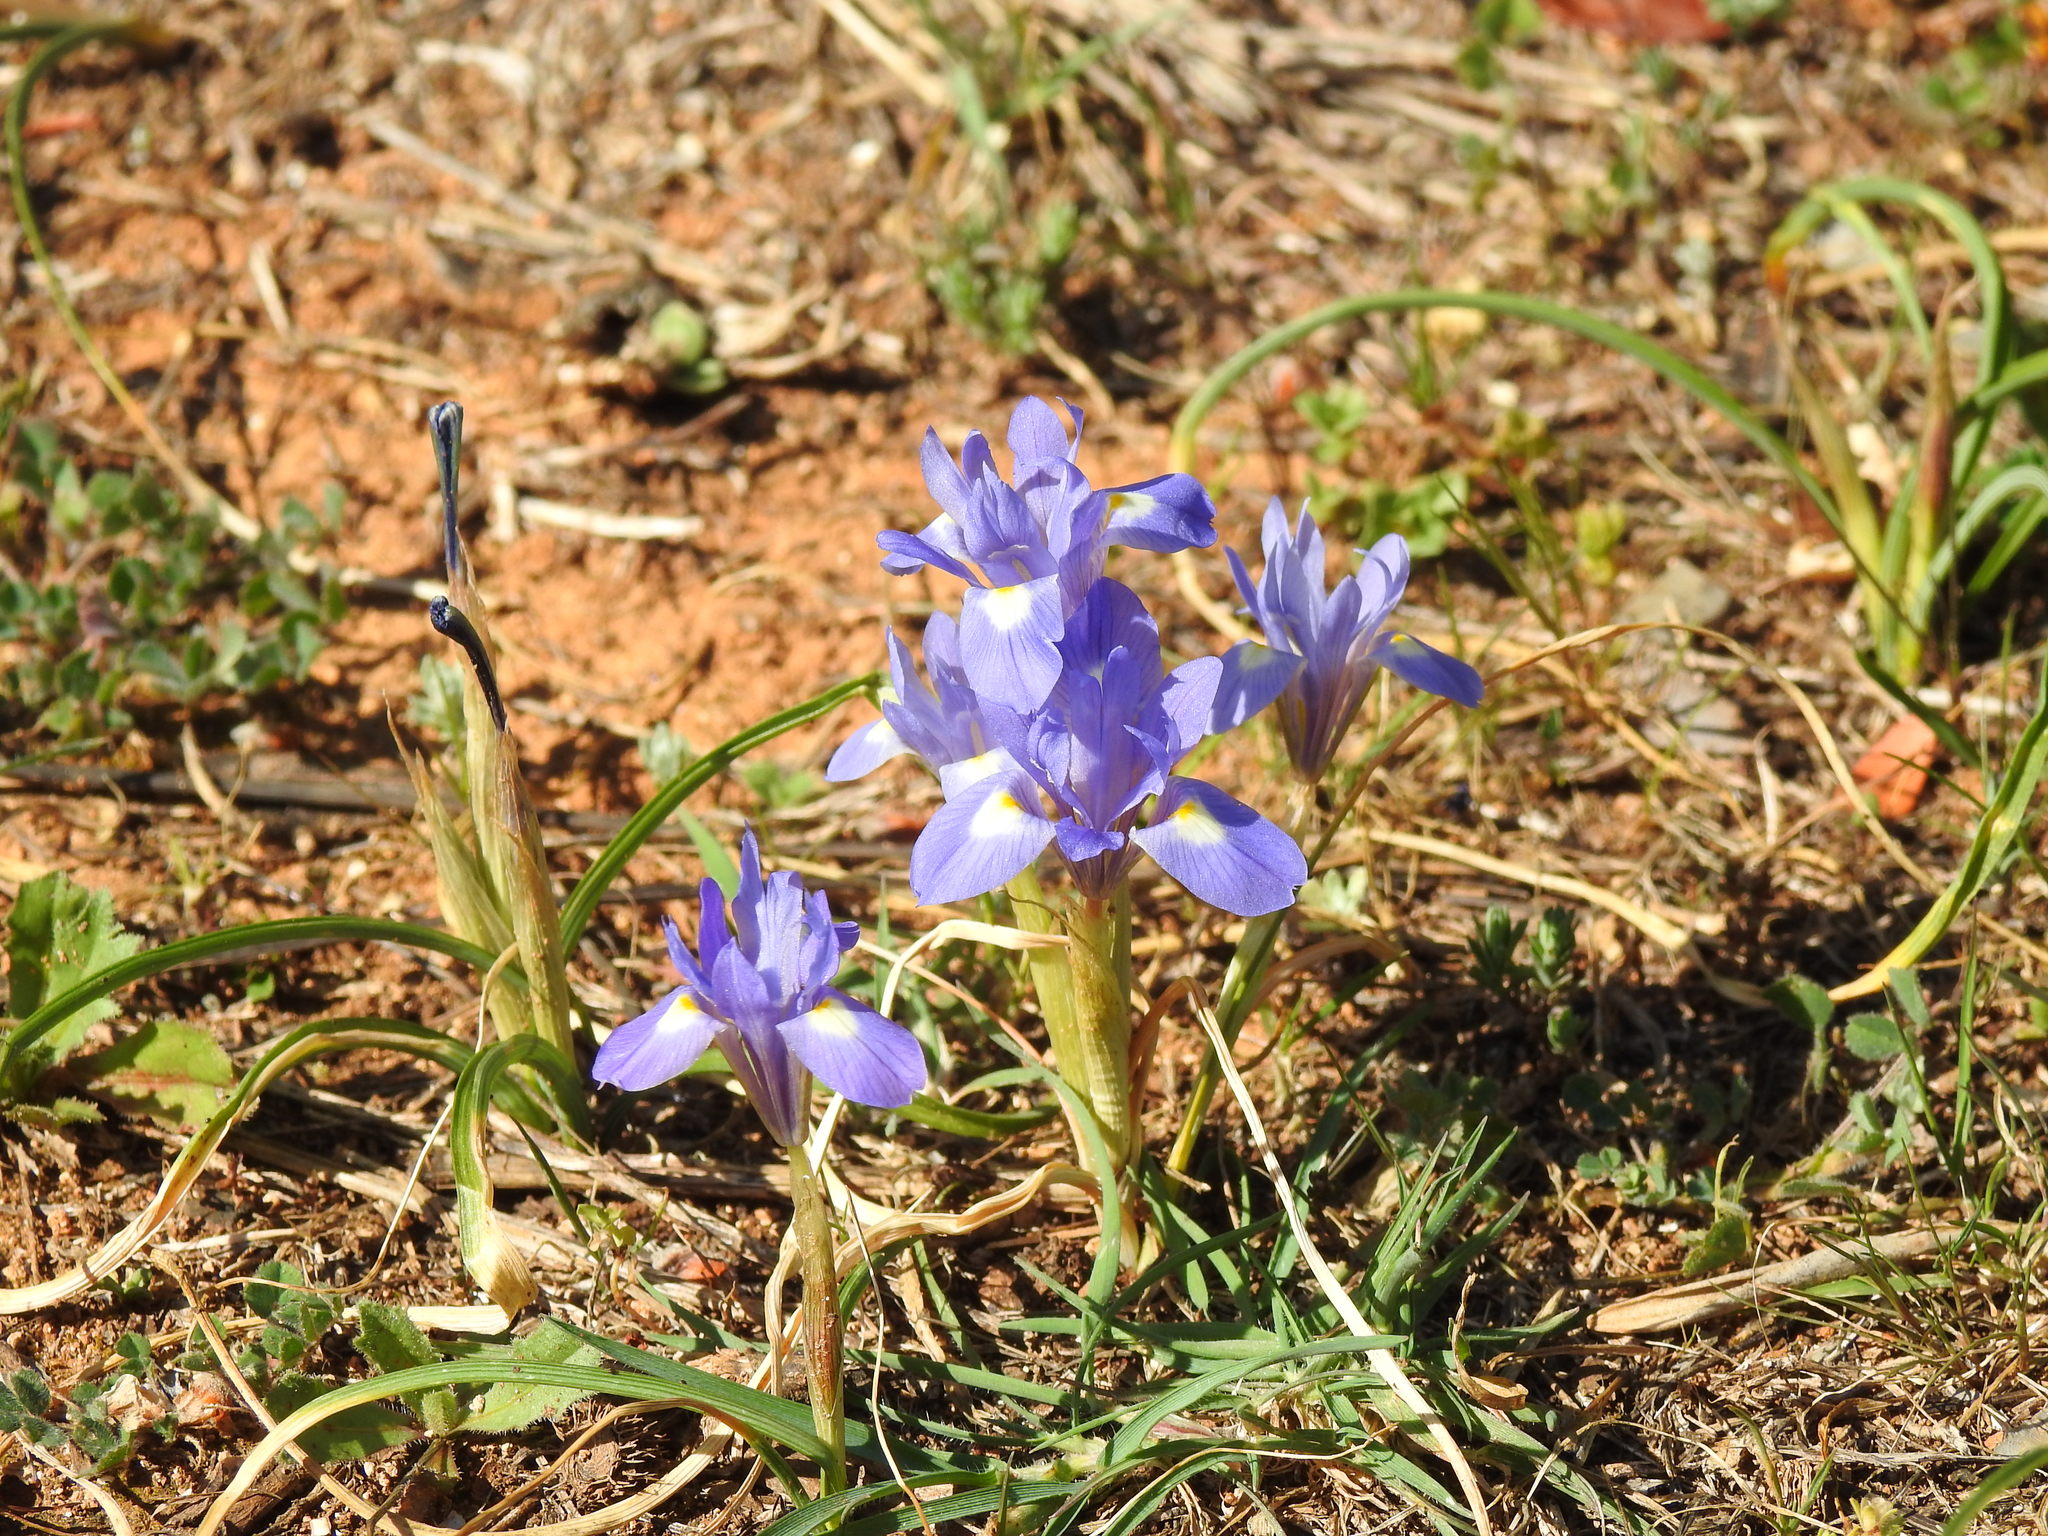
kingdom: Plantae
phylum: Tracheophyta
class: Liliopsida
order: Asparagales
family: Iridaceae
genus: Moraea
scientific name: Moraea sisyrinchium
